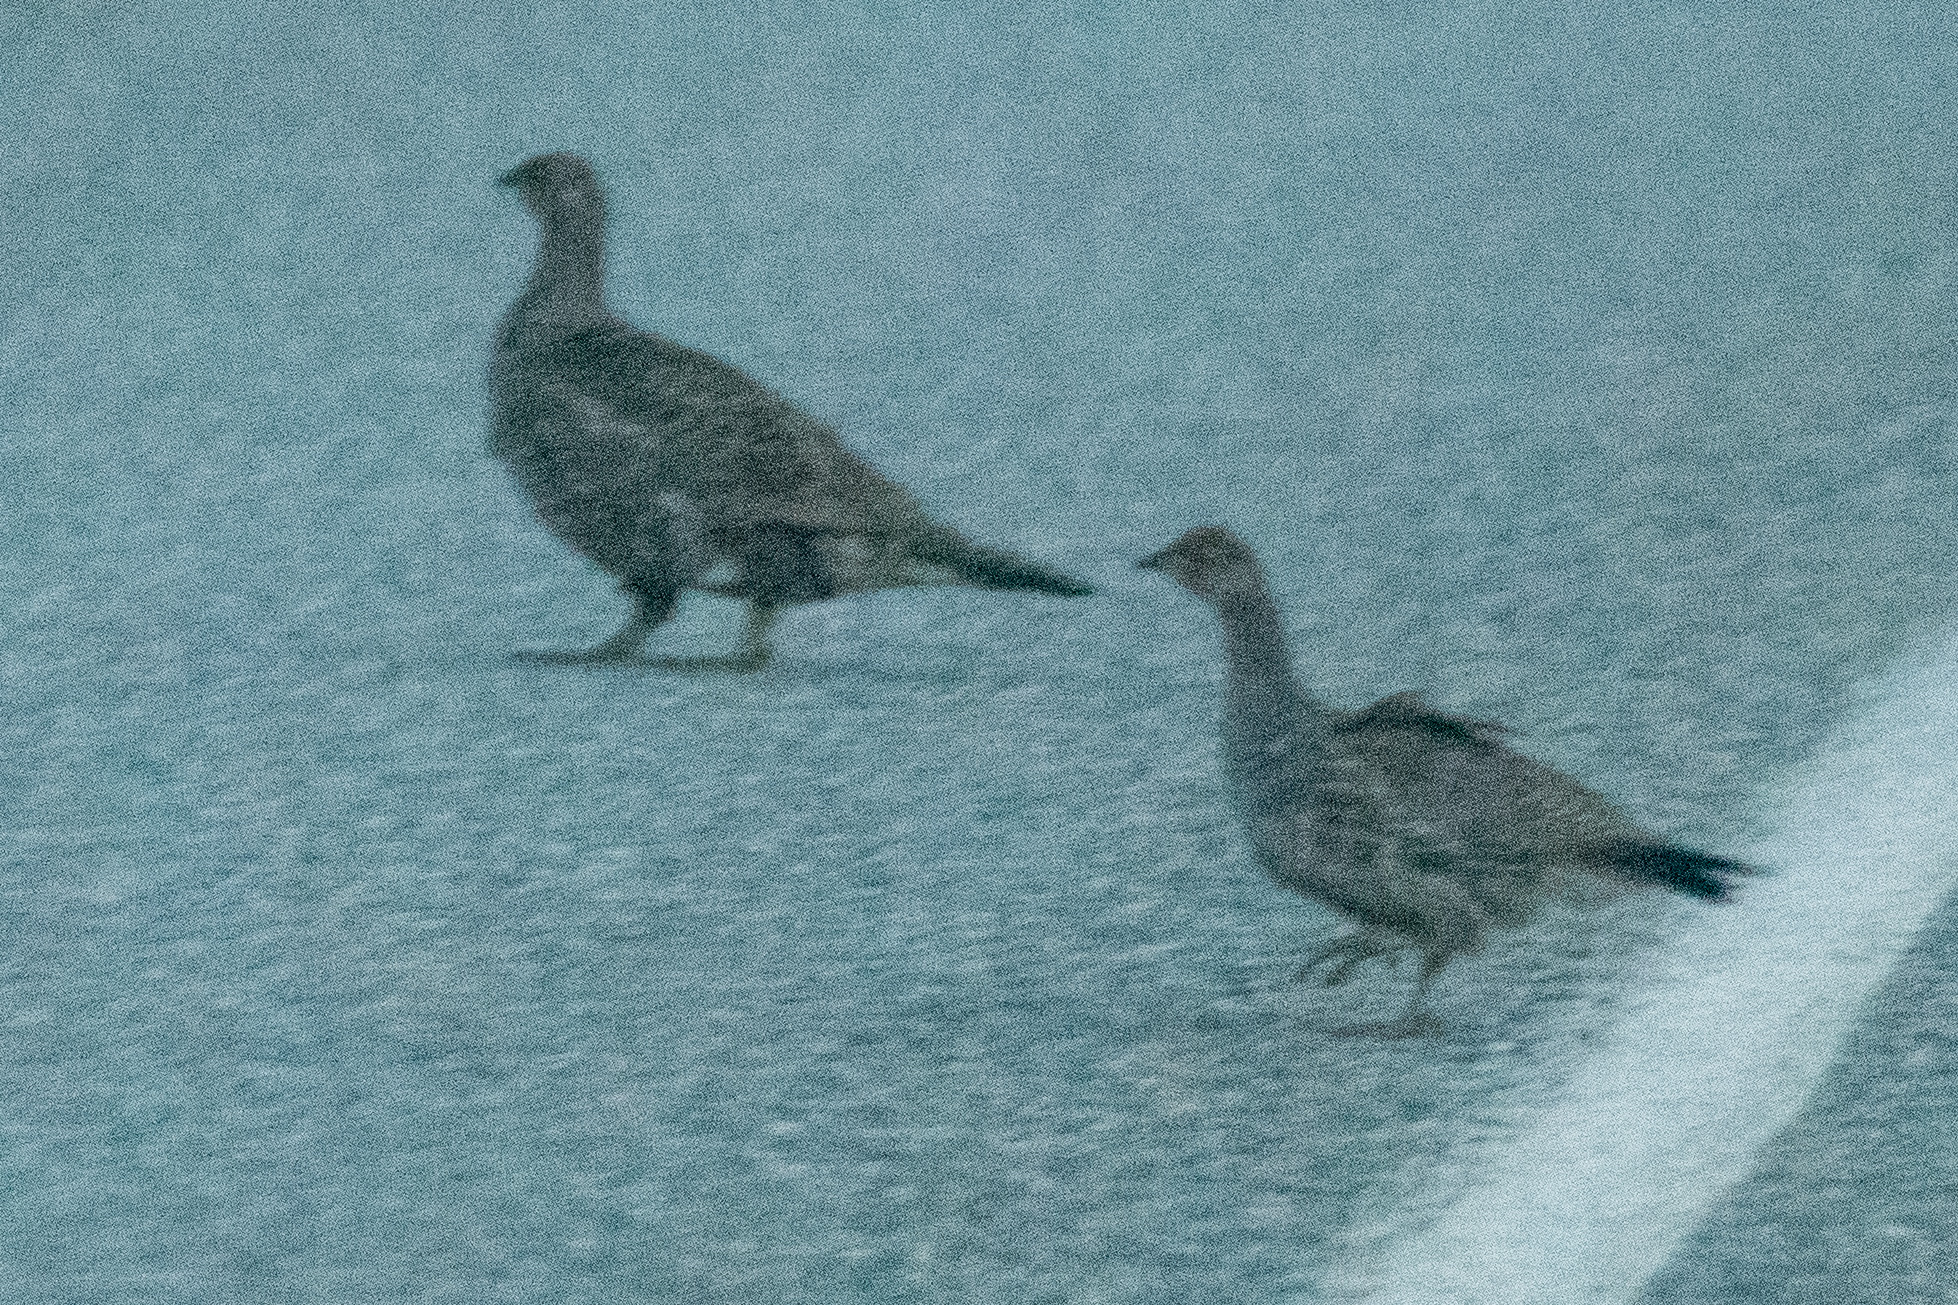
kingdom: Animalia
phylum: Chordata
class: Aves
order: Galliformes
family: Phasianidae
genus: Dendragapus
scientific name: Dendragapus obscurus
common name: Dusky grouse
